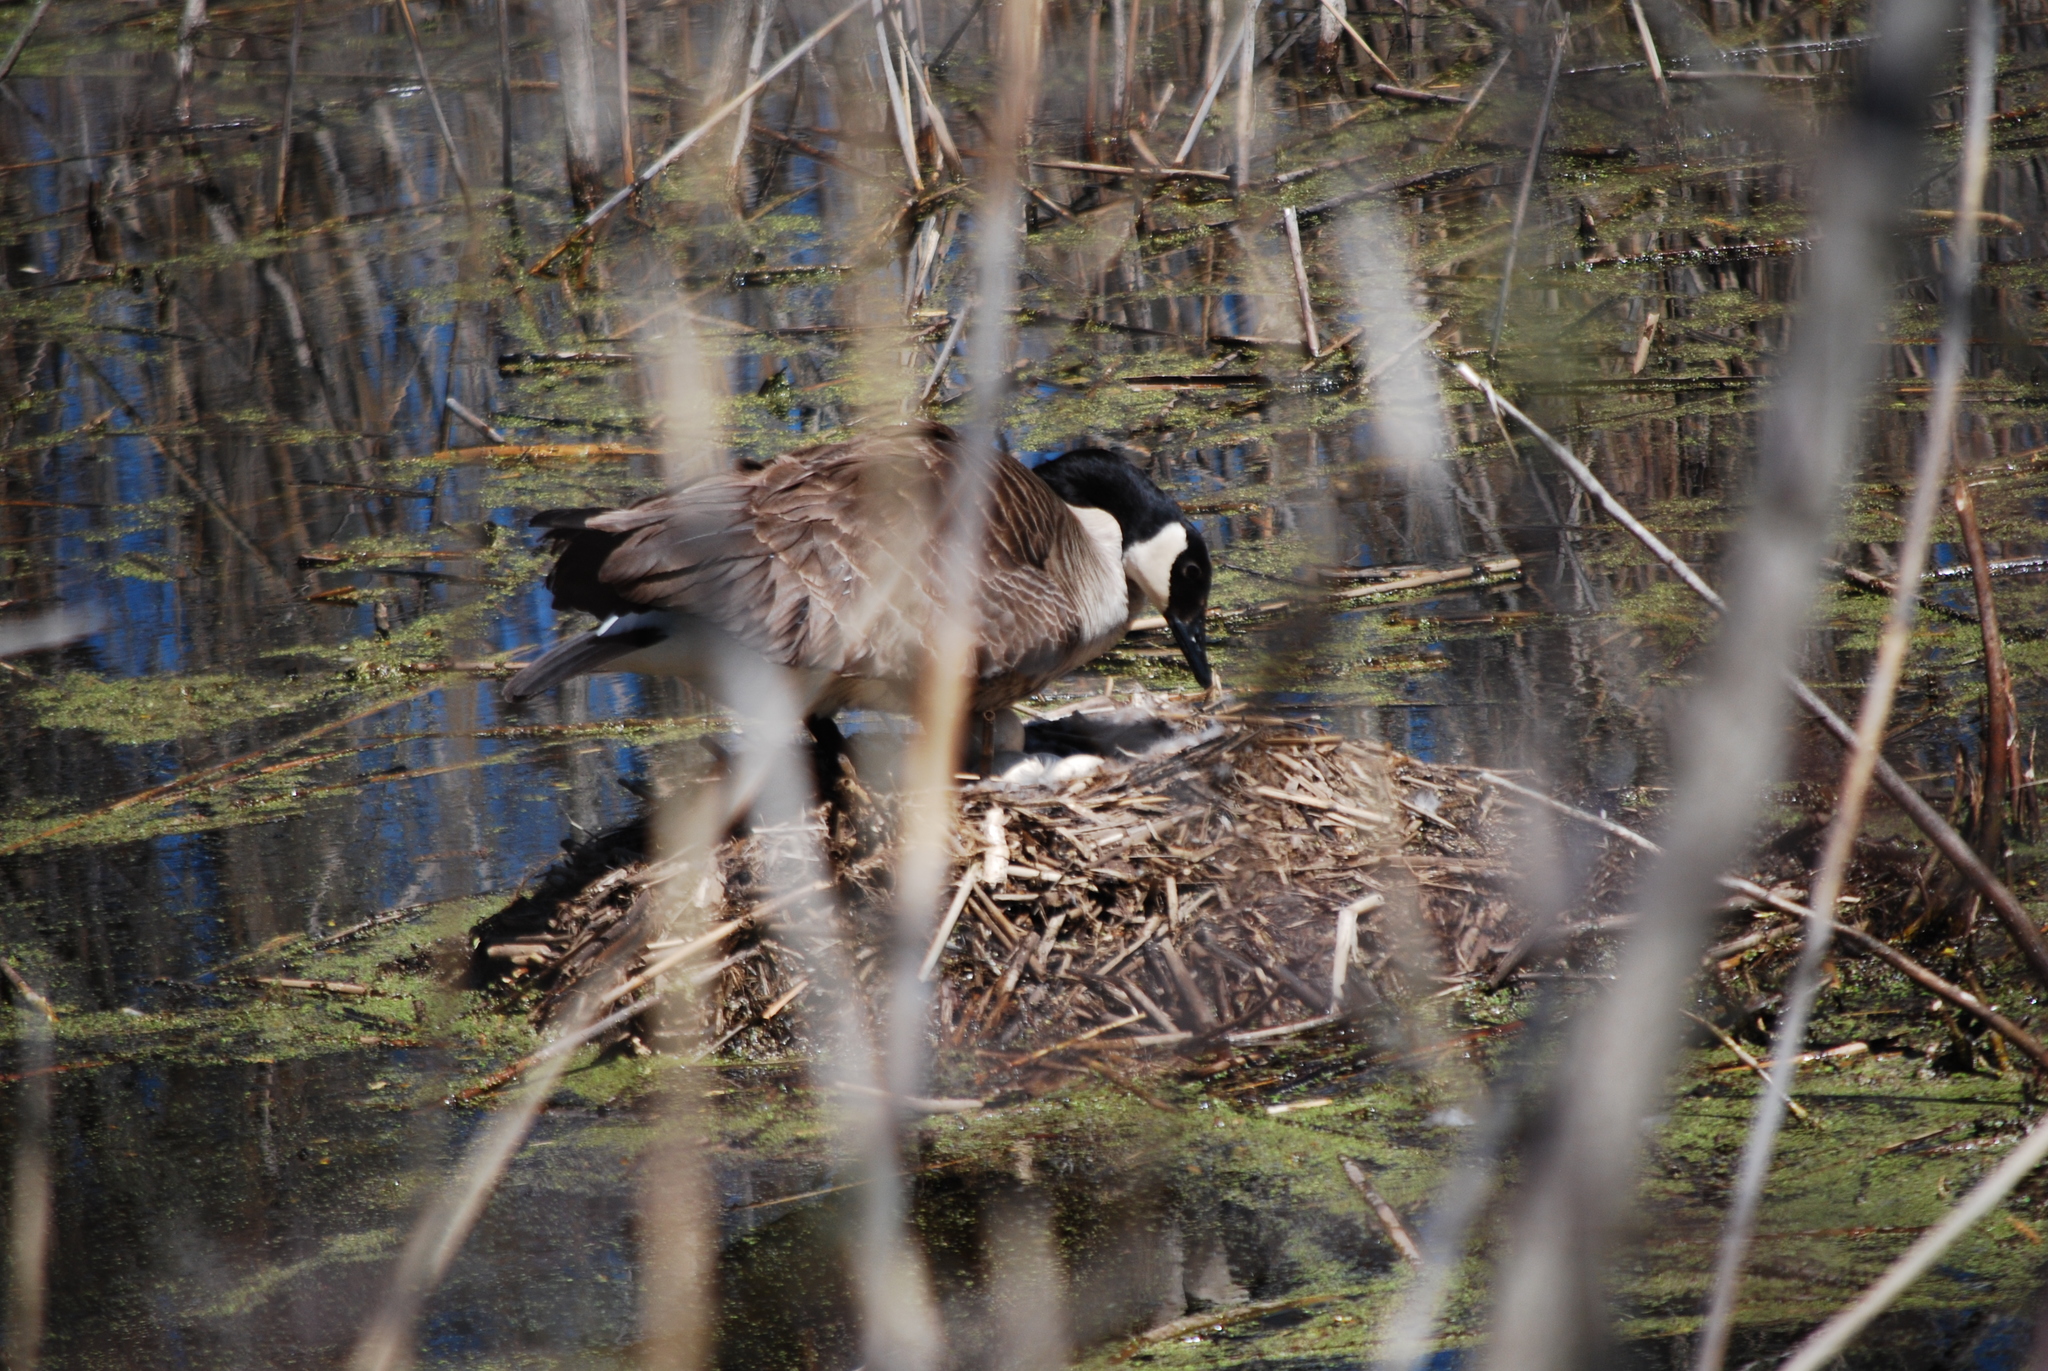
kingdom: Animalia
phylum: Chordata
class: Aves
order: Anseriformes
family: Anatidae
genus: Branta
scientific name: Branta canadensis
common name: Canada goose
